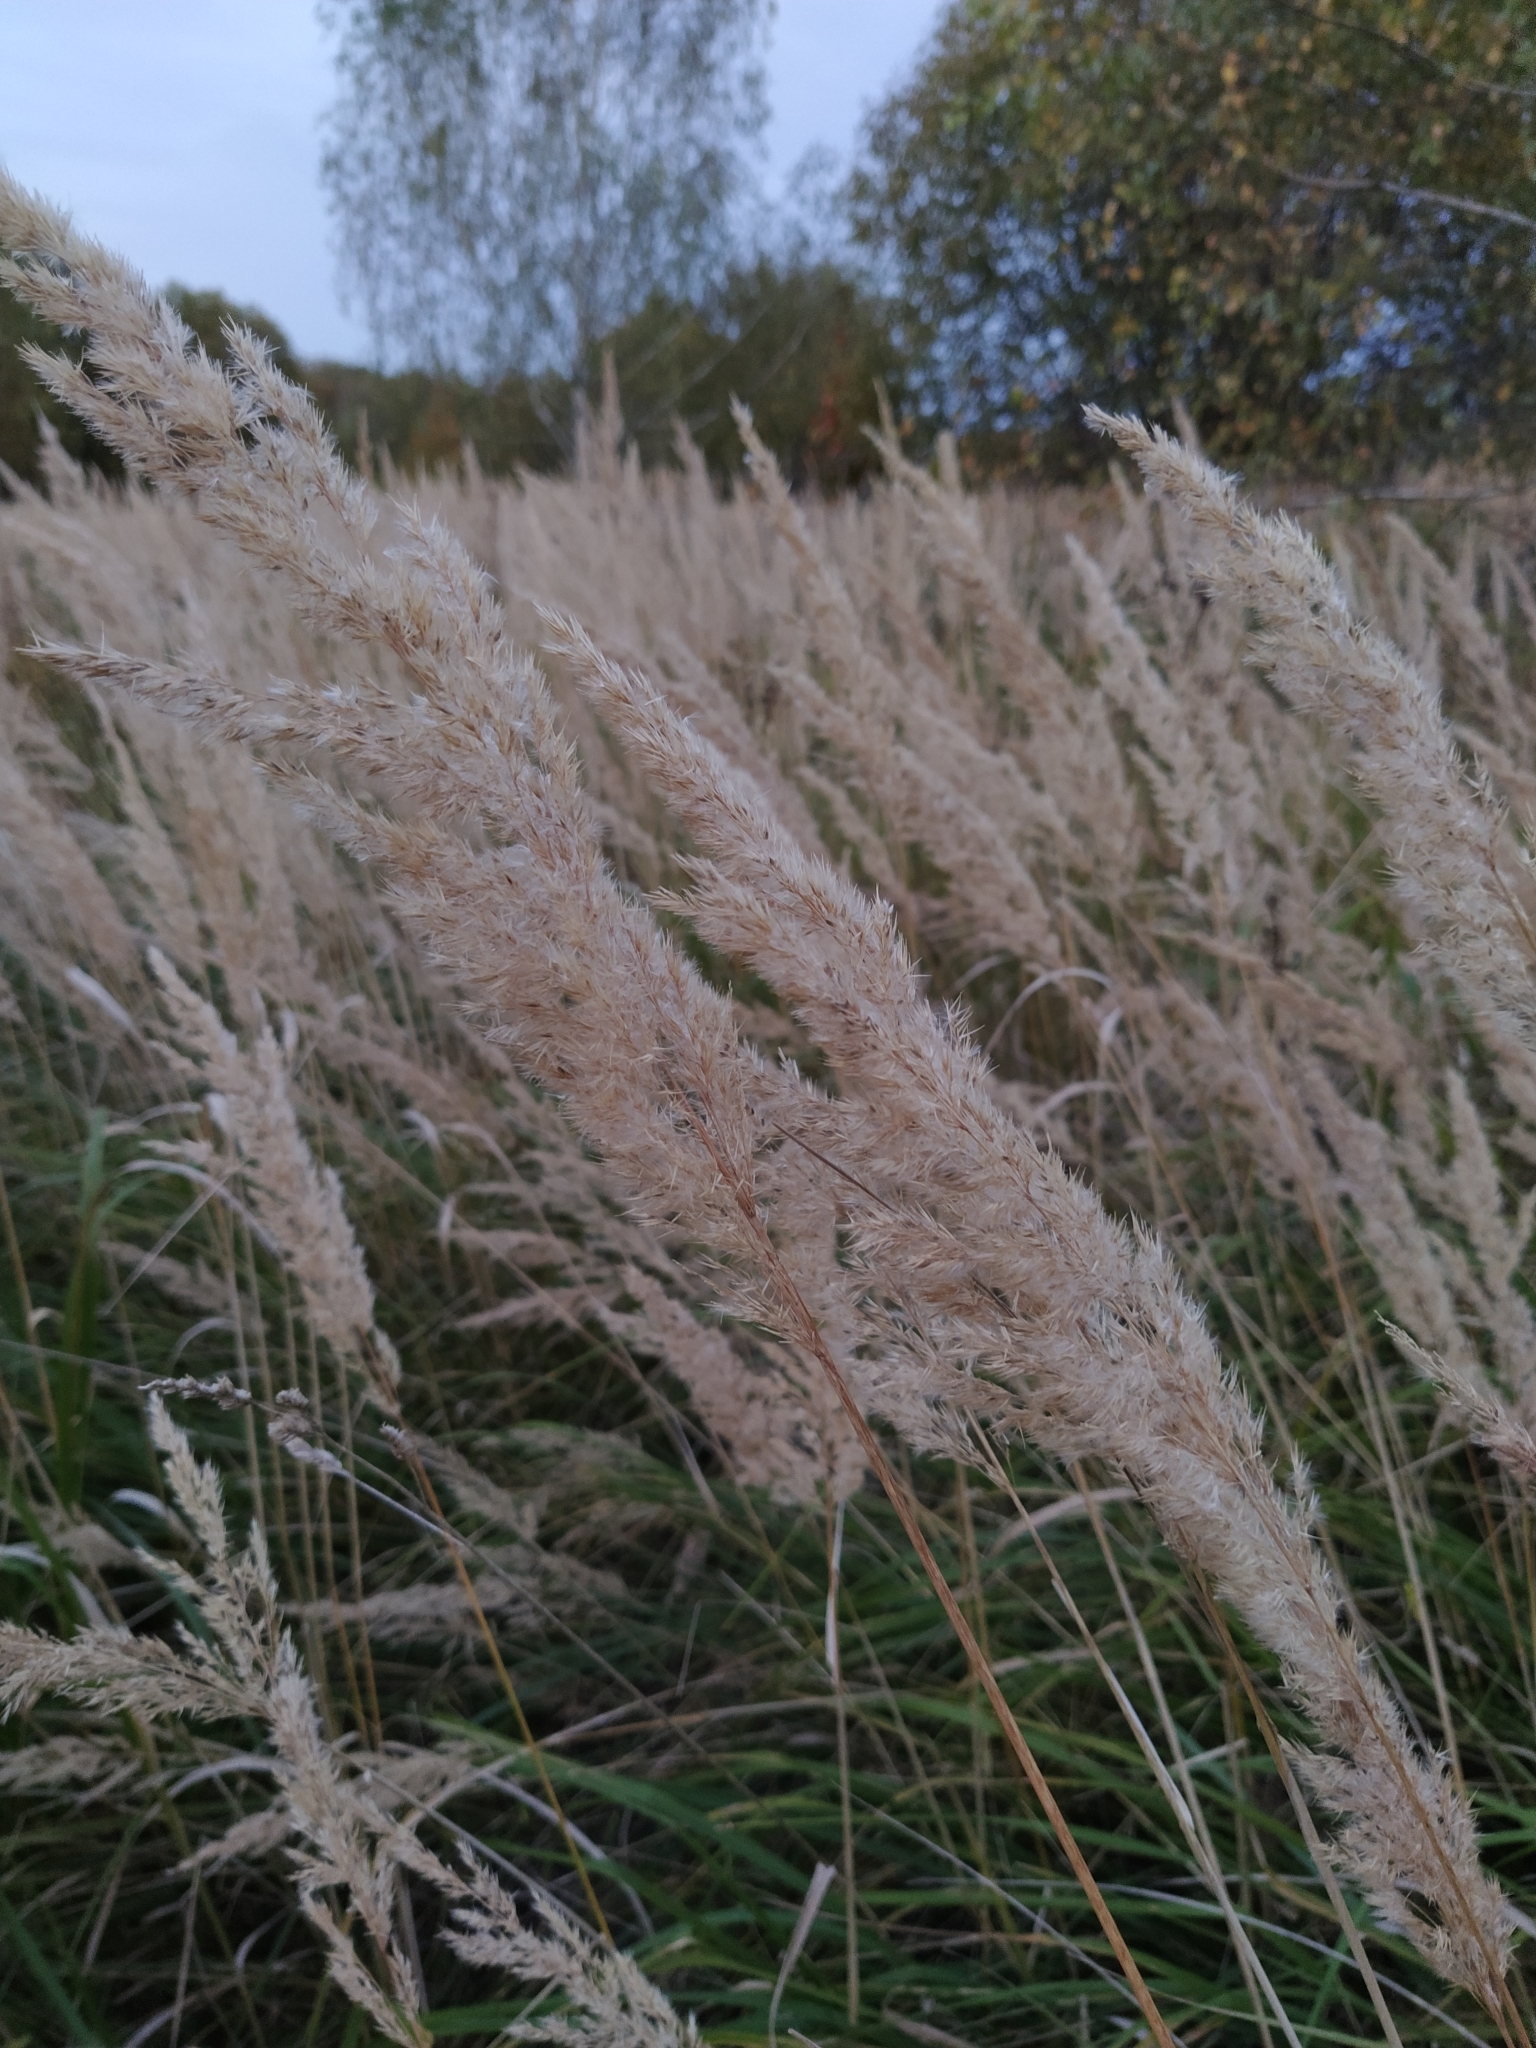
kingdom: Plantae
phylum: Tracheophyta
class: Liliopsida
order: Poales
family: Poaceae
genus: Calamagrostis
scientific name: Calamagrostis epigejos
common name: Wood small-reed
